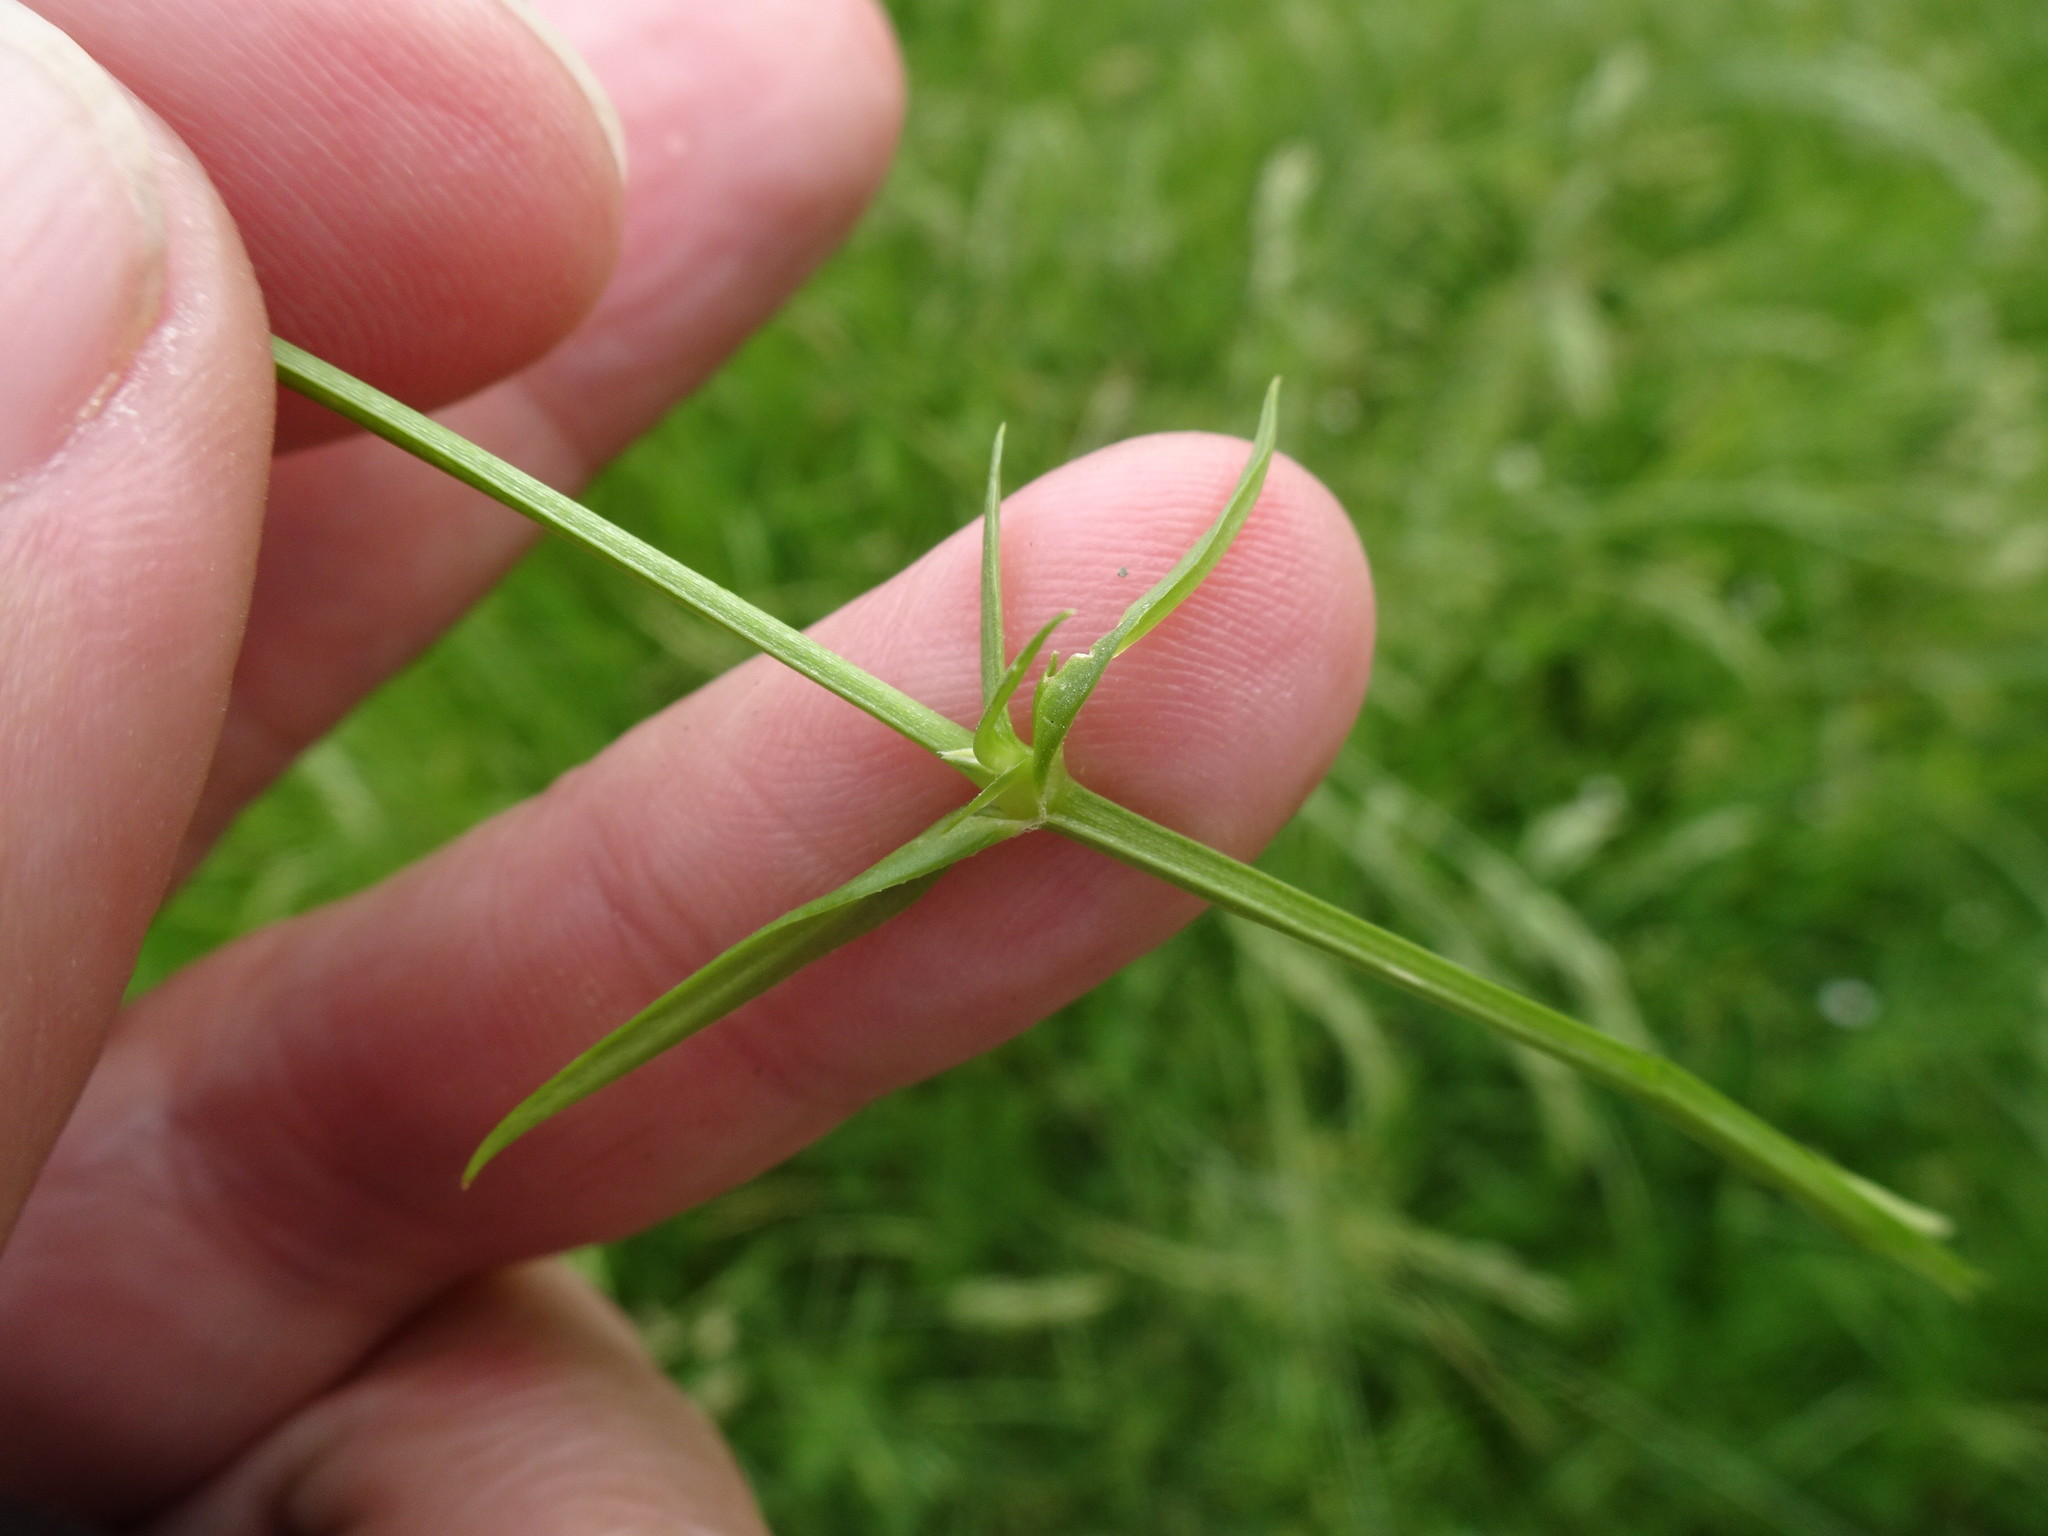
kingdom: Plantae
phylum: Tracheophyta
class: Magnoliopsida
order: Caryophyllales
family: Caryophyllaceae
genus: Stellaria
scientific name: Stellaria graminea
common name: Grass-like starwort
